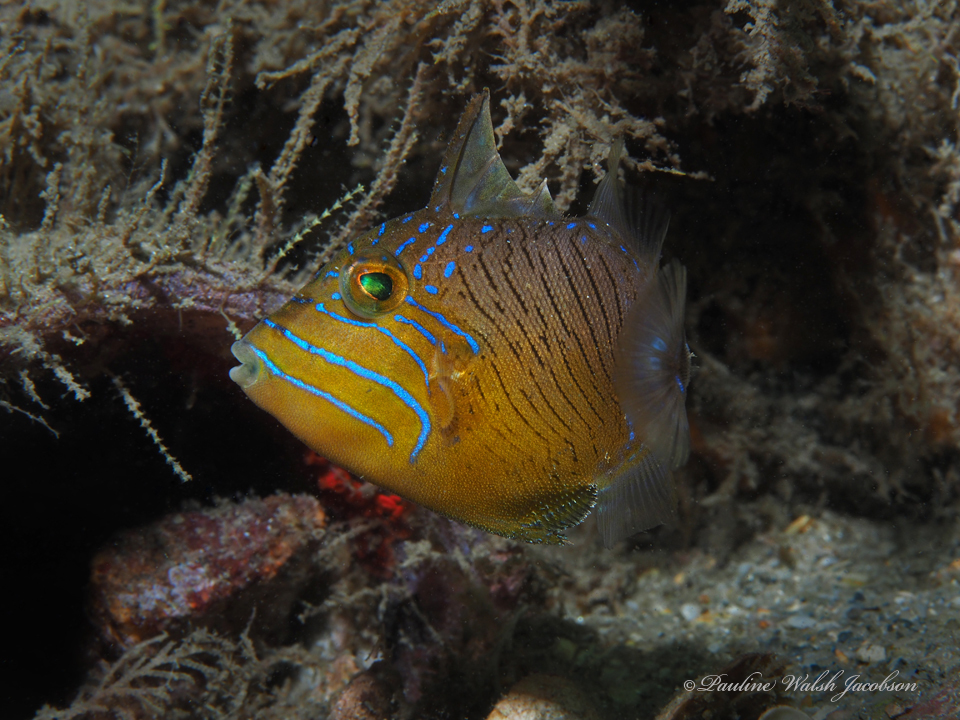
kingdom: Animalia
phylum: Chordata
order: Tetraodontiformes
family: Balistidae
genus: Balistes
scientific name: Balistes vetula
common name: Queen triggerfish
